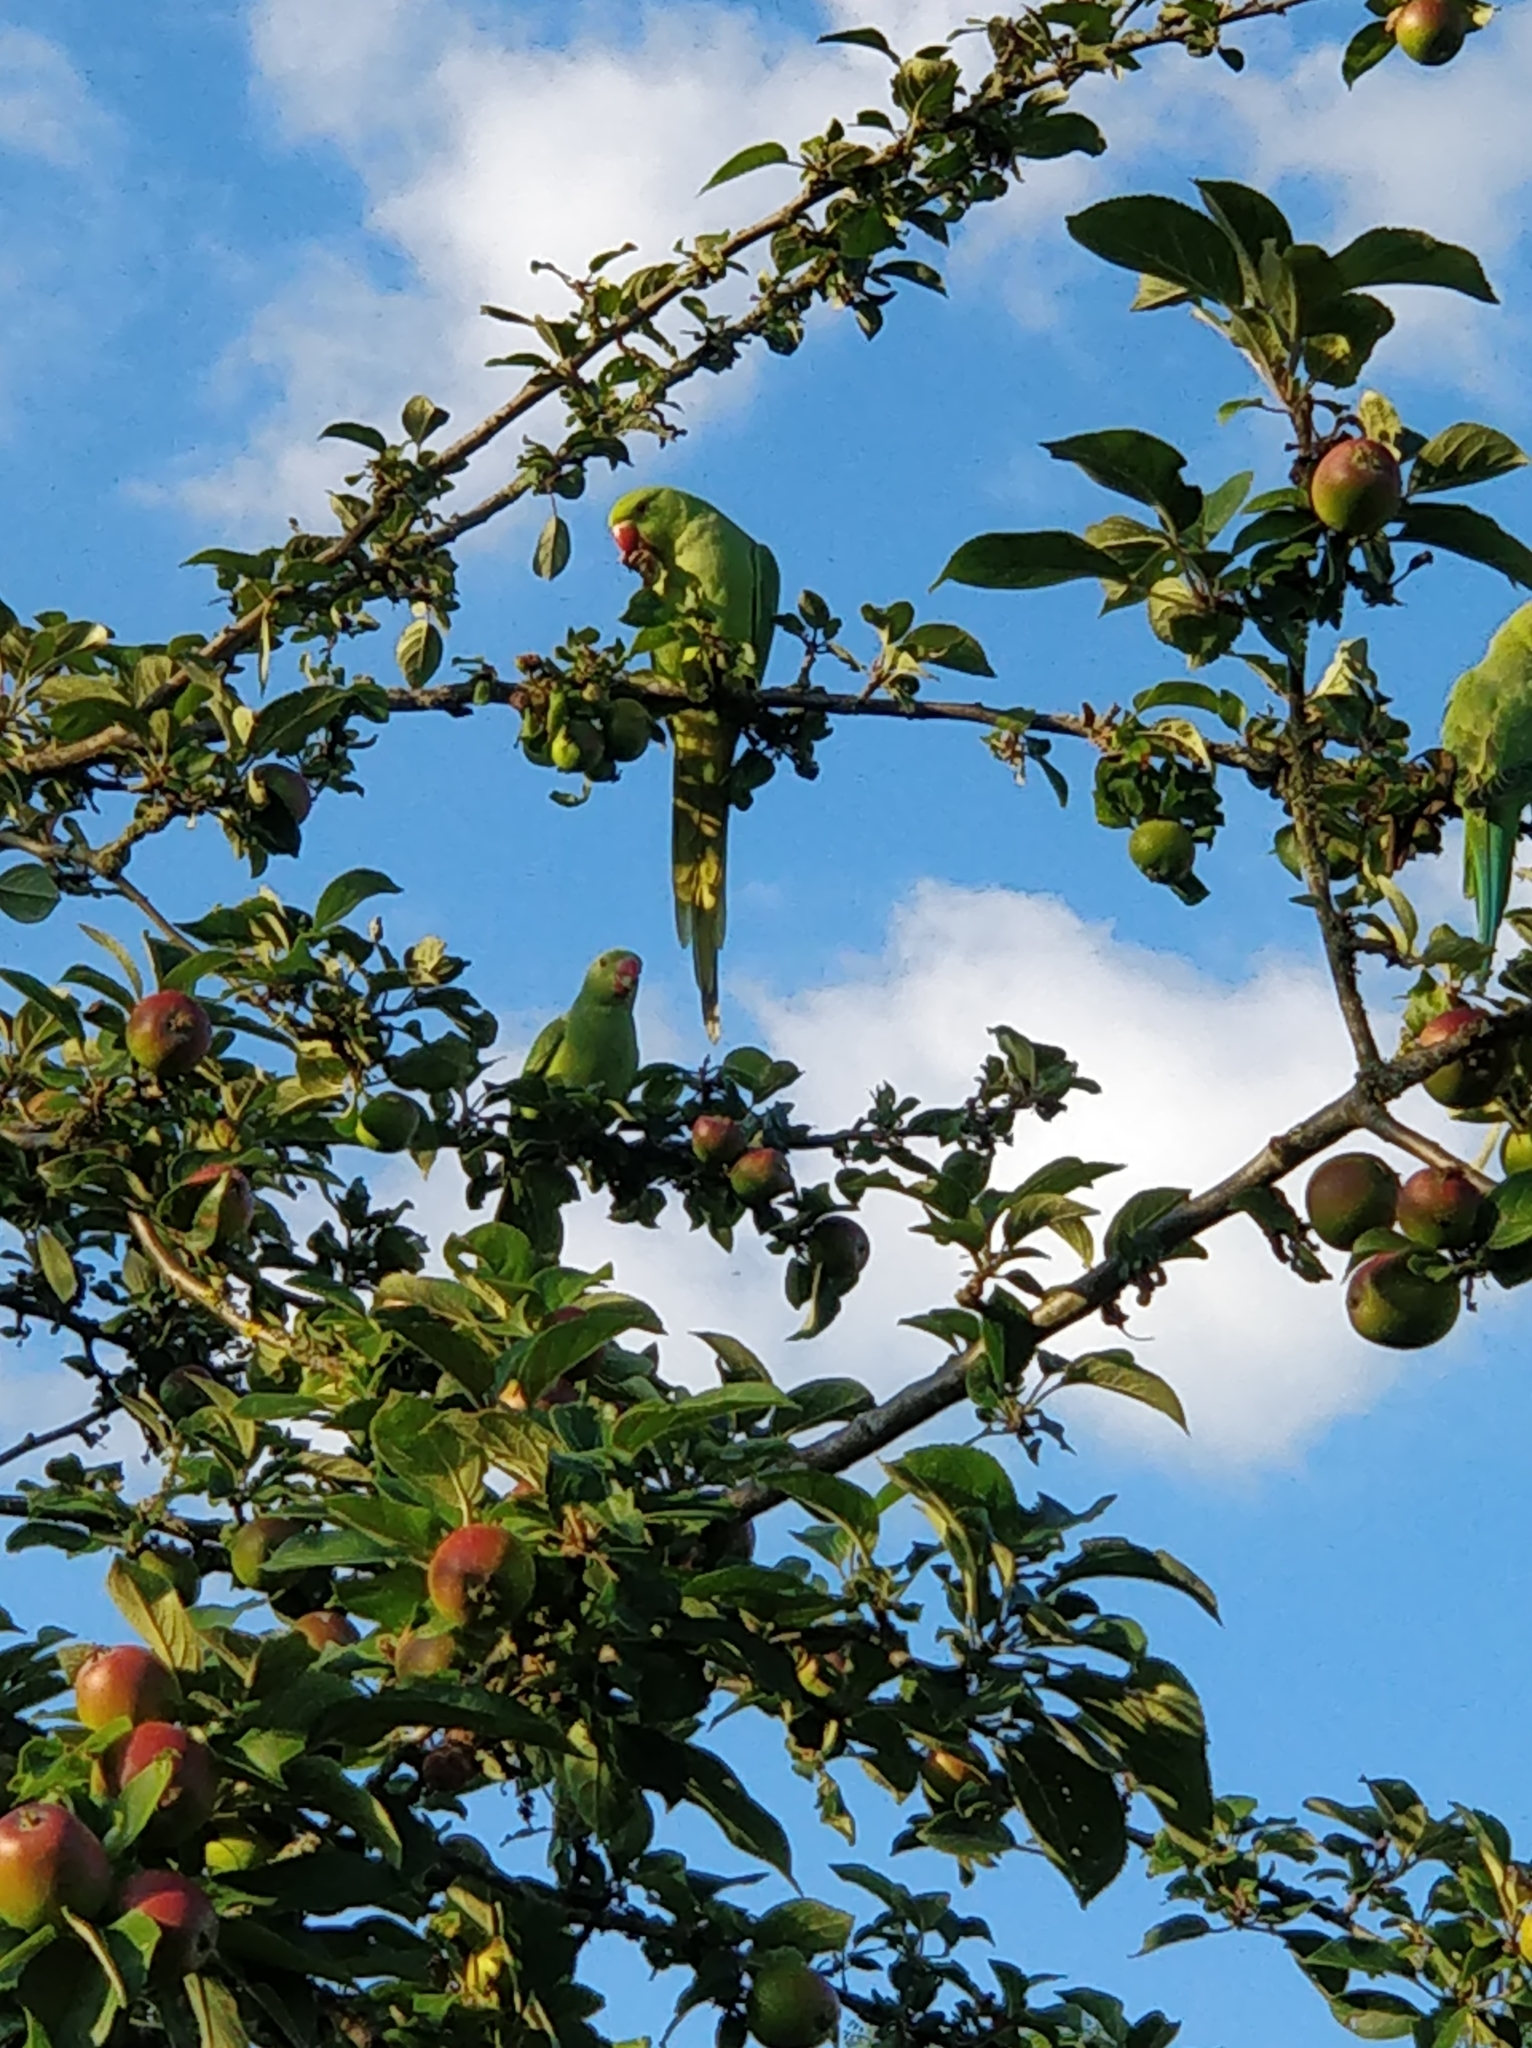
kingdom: Animalia
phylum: Chordata
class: Aves
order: Psittaciformes
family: Psittacidae
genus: Psittacula
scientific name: Psittacula krameri
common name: Rose-ringed parakeet
